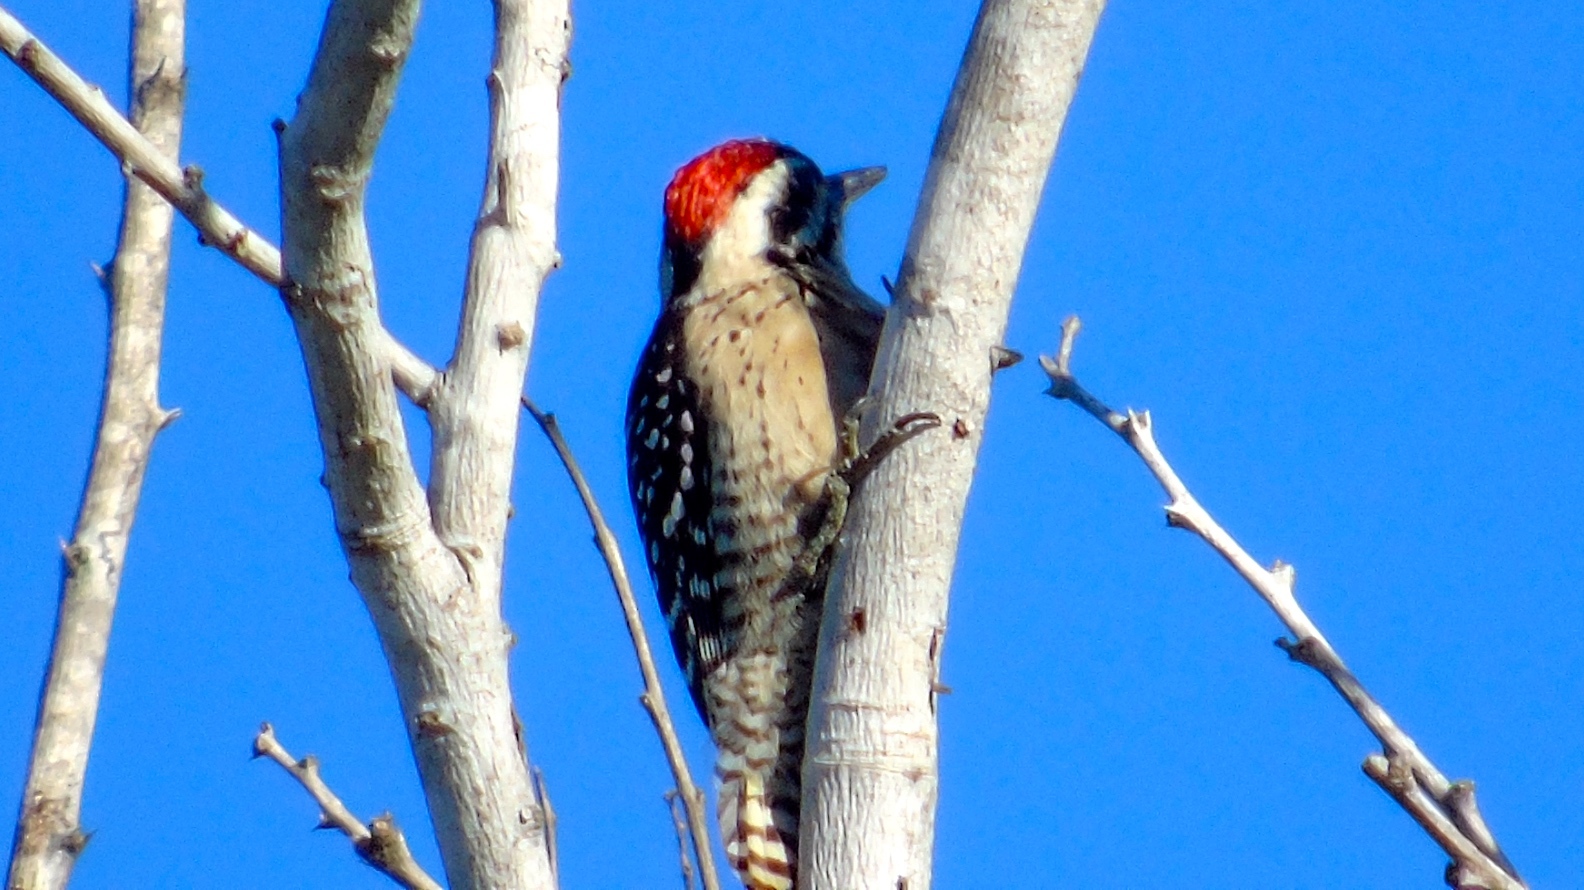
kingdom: Animalia
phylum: Chordata
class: Aves
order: Piciformes
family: Picidae
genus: Dryobates
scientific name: Dryobates scalaris
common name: Ladder-backed woodpecker
